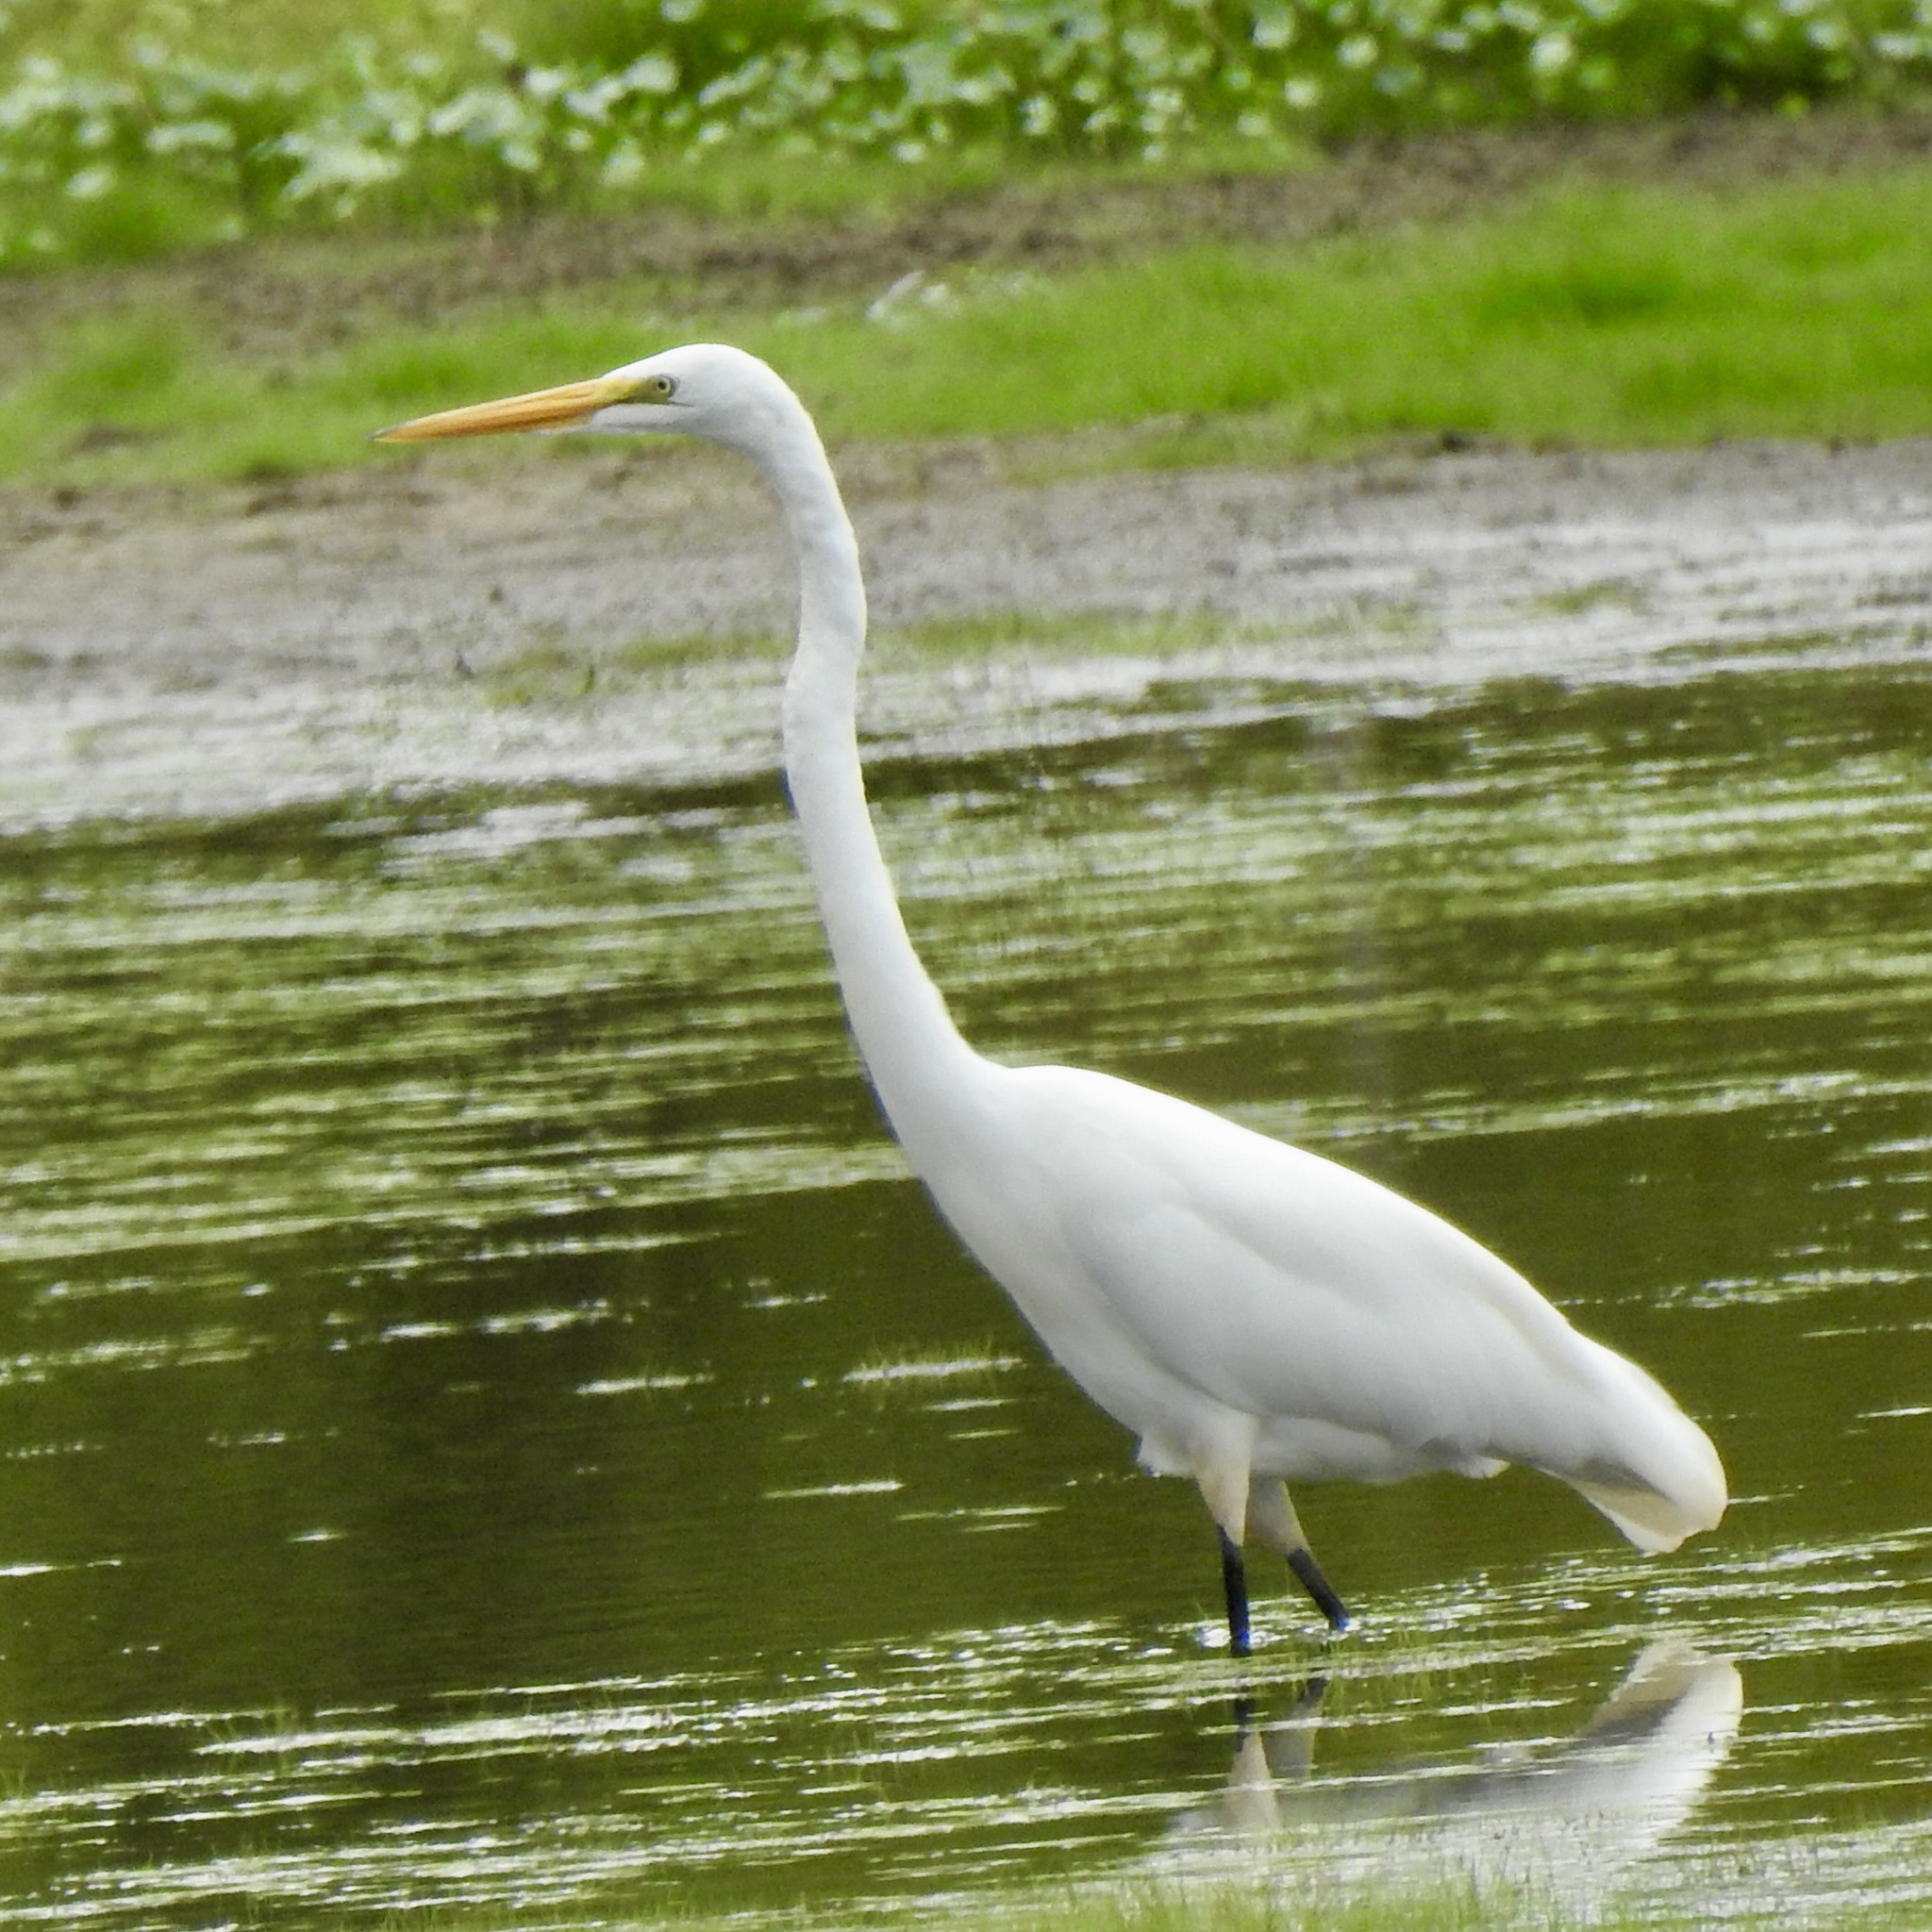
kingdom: Animalia
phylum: Chordata
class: Aves
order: Pelecaniformes
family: Ardeidae
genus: Ardea
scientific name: Ardea alba
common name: Great egret
